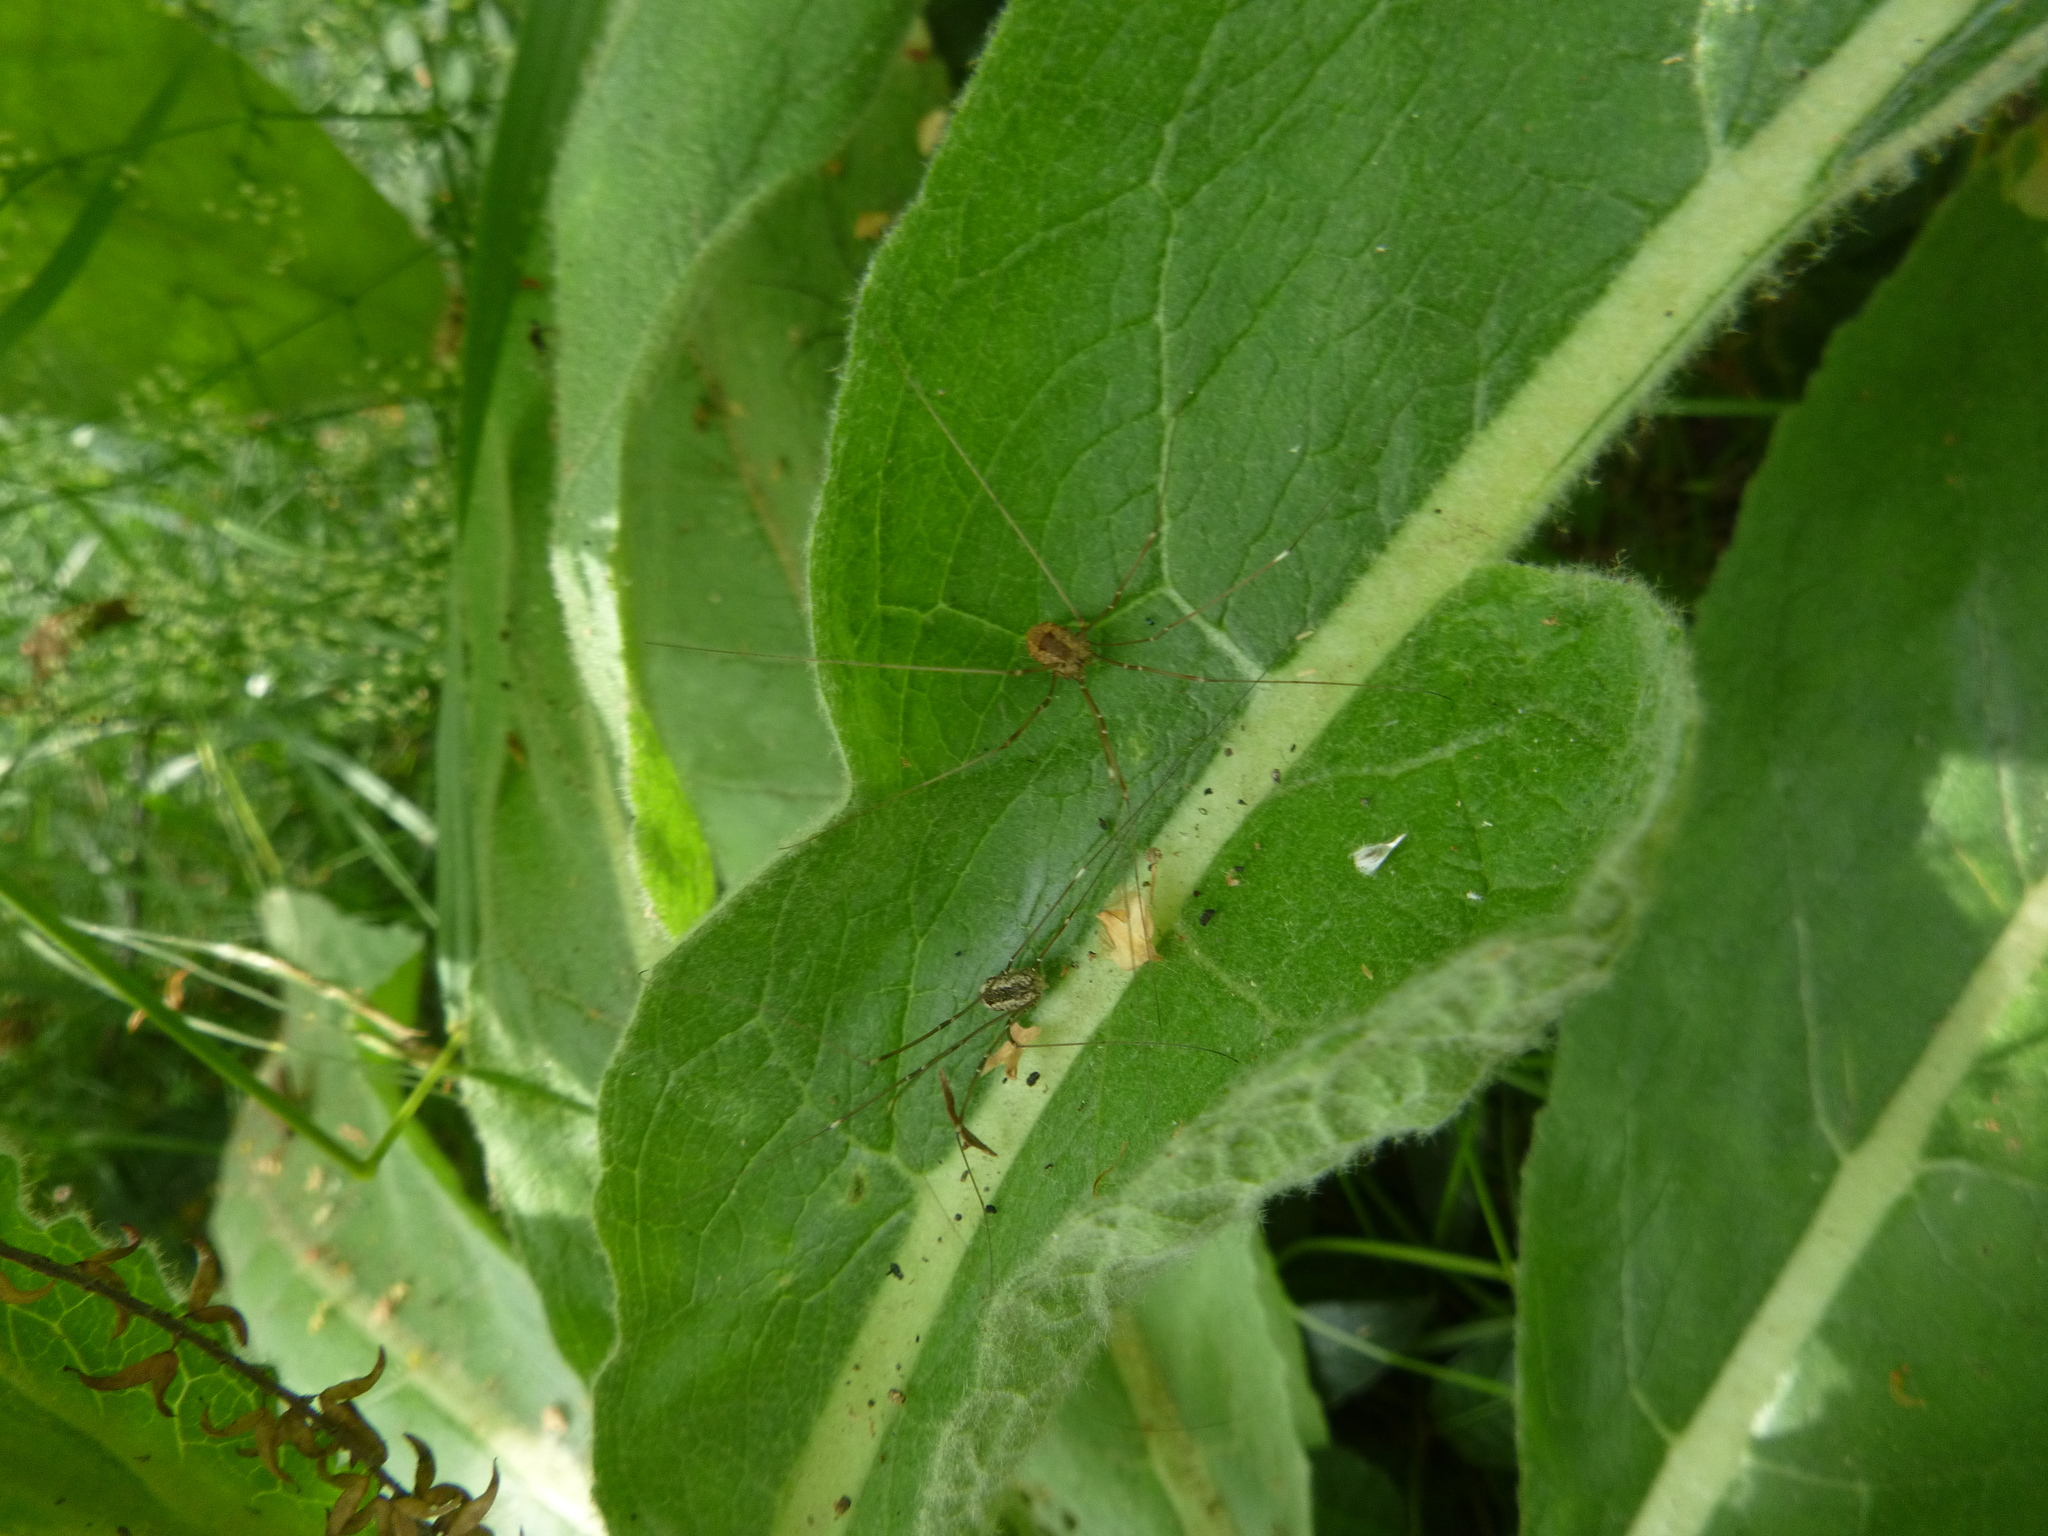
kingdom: Animalia
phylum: Arthropoda
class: Arachnida
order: Opiliones
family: Sclerosomatidae
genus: Leiobunum
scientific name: Leiobunum rotundum
